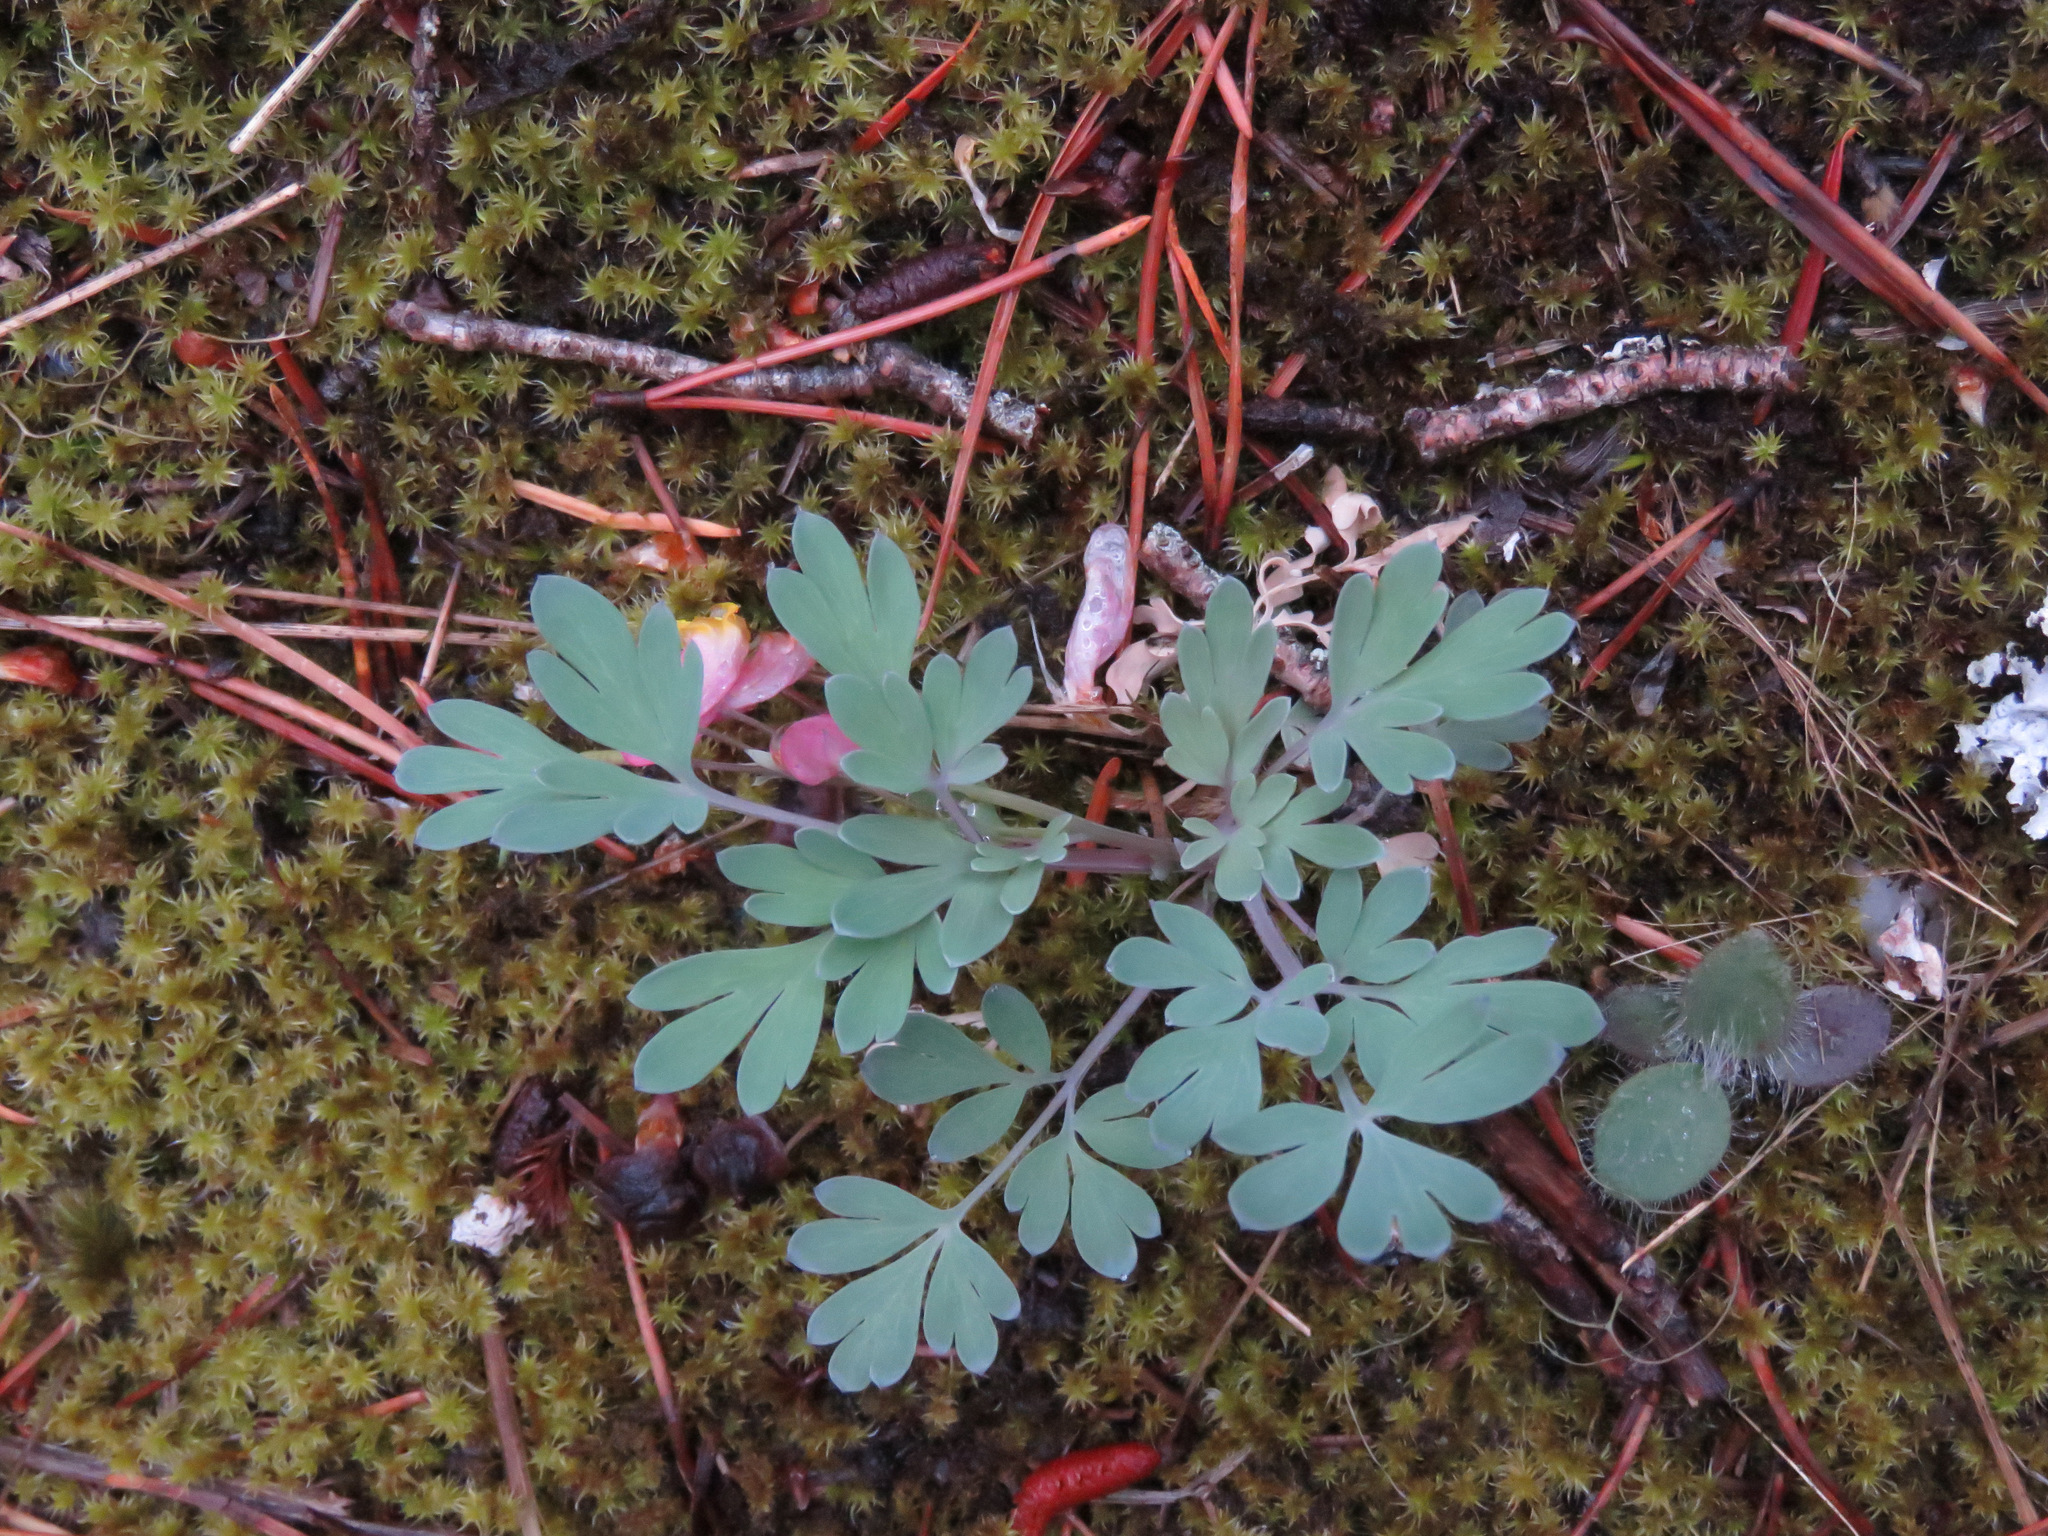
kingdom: Plantae
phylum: Tracheophyta
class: Magnoliopsida
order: Ranunculales
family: Papaveraceae
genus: Capnoides
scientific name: Capnoides sempervirens
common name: Rock harlequin
